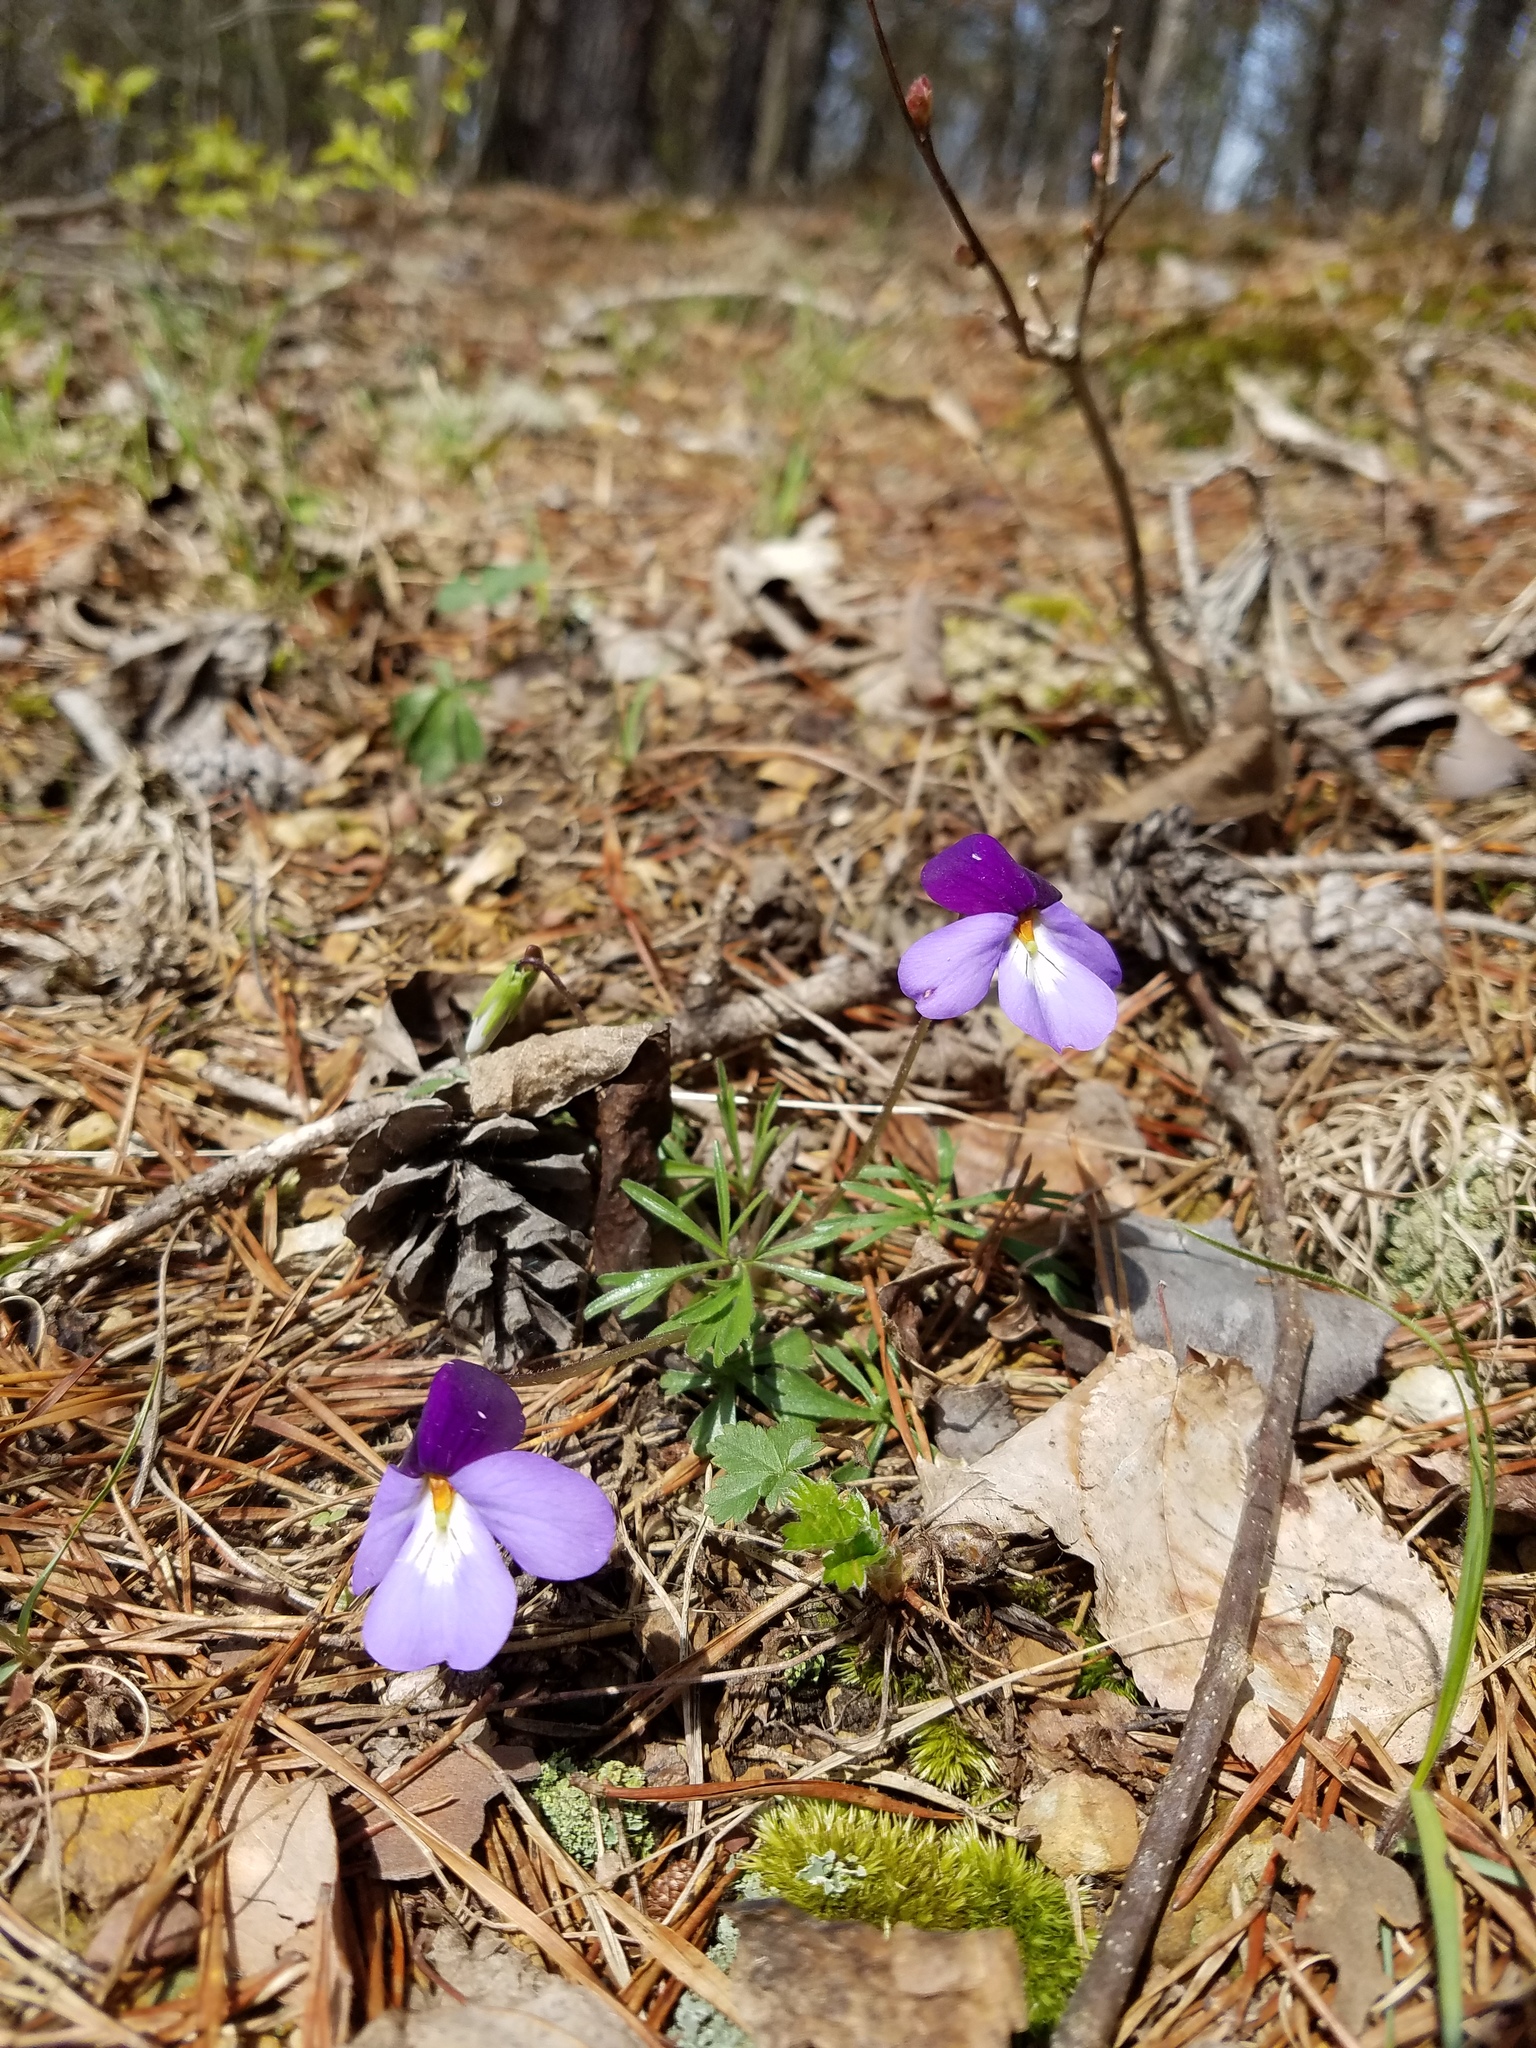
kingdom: Plantae
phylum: Tracheophyta
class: Magnoliopsida
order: Malpighiales
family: Violaceae
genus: Viola
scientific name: Viola pedata
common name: Pansy violet
